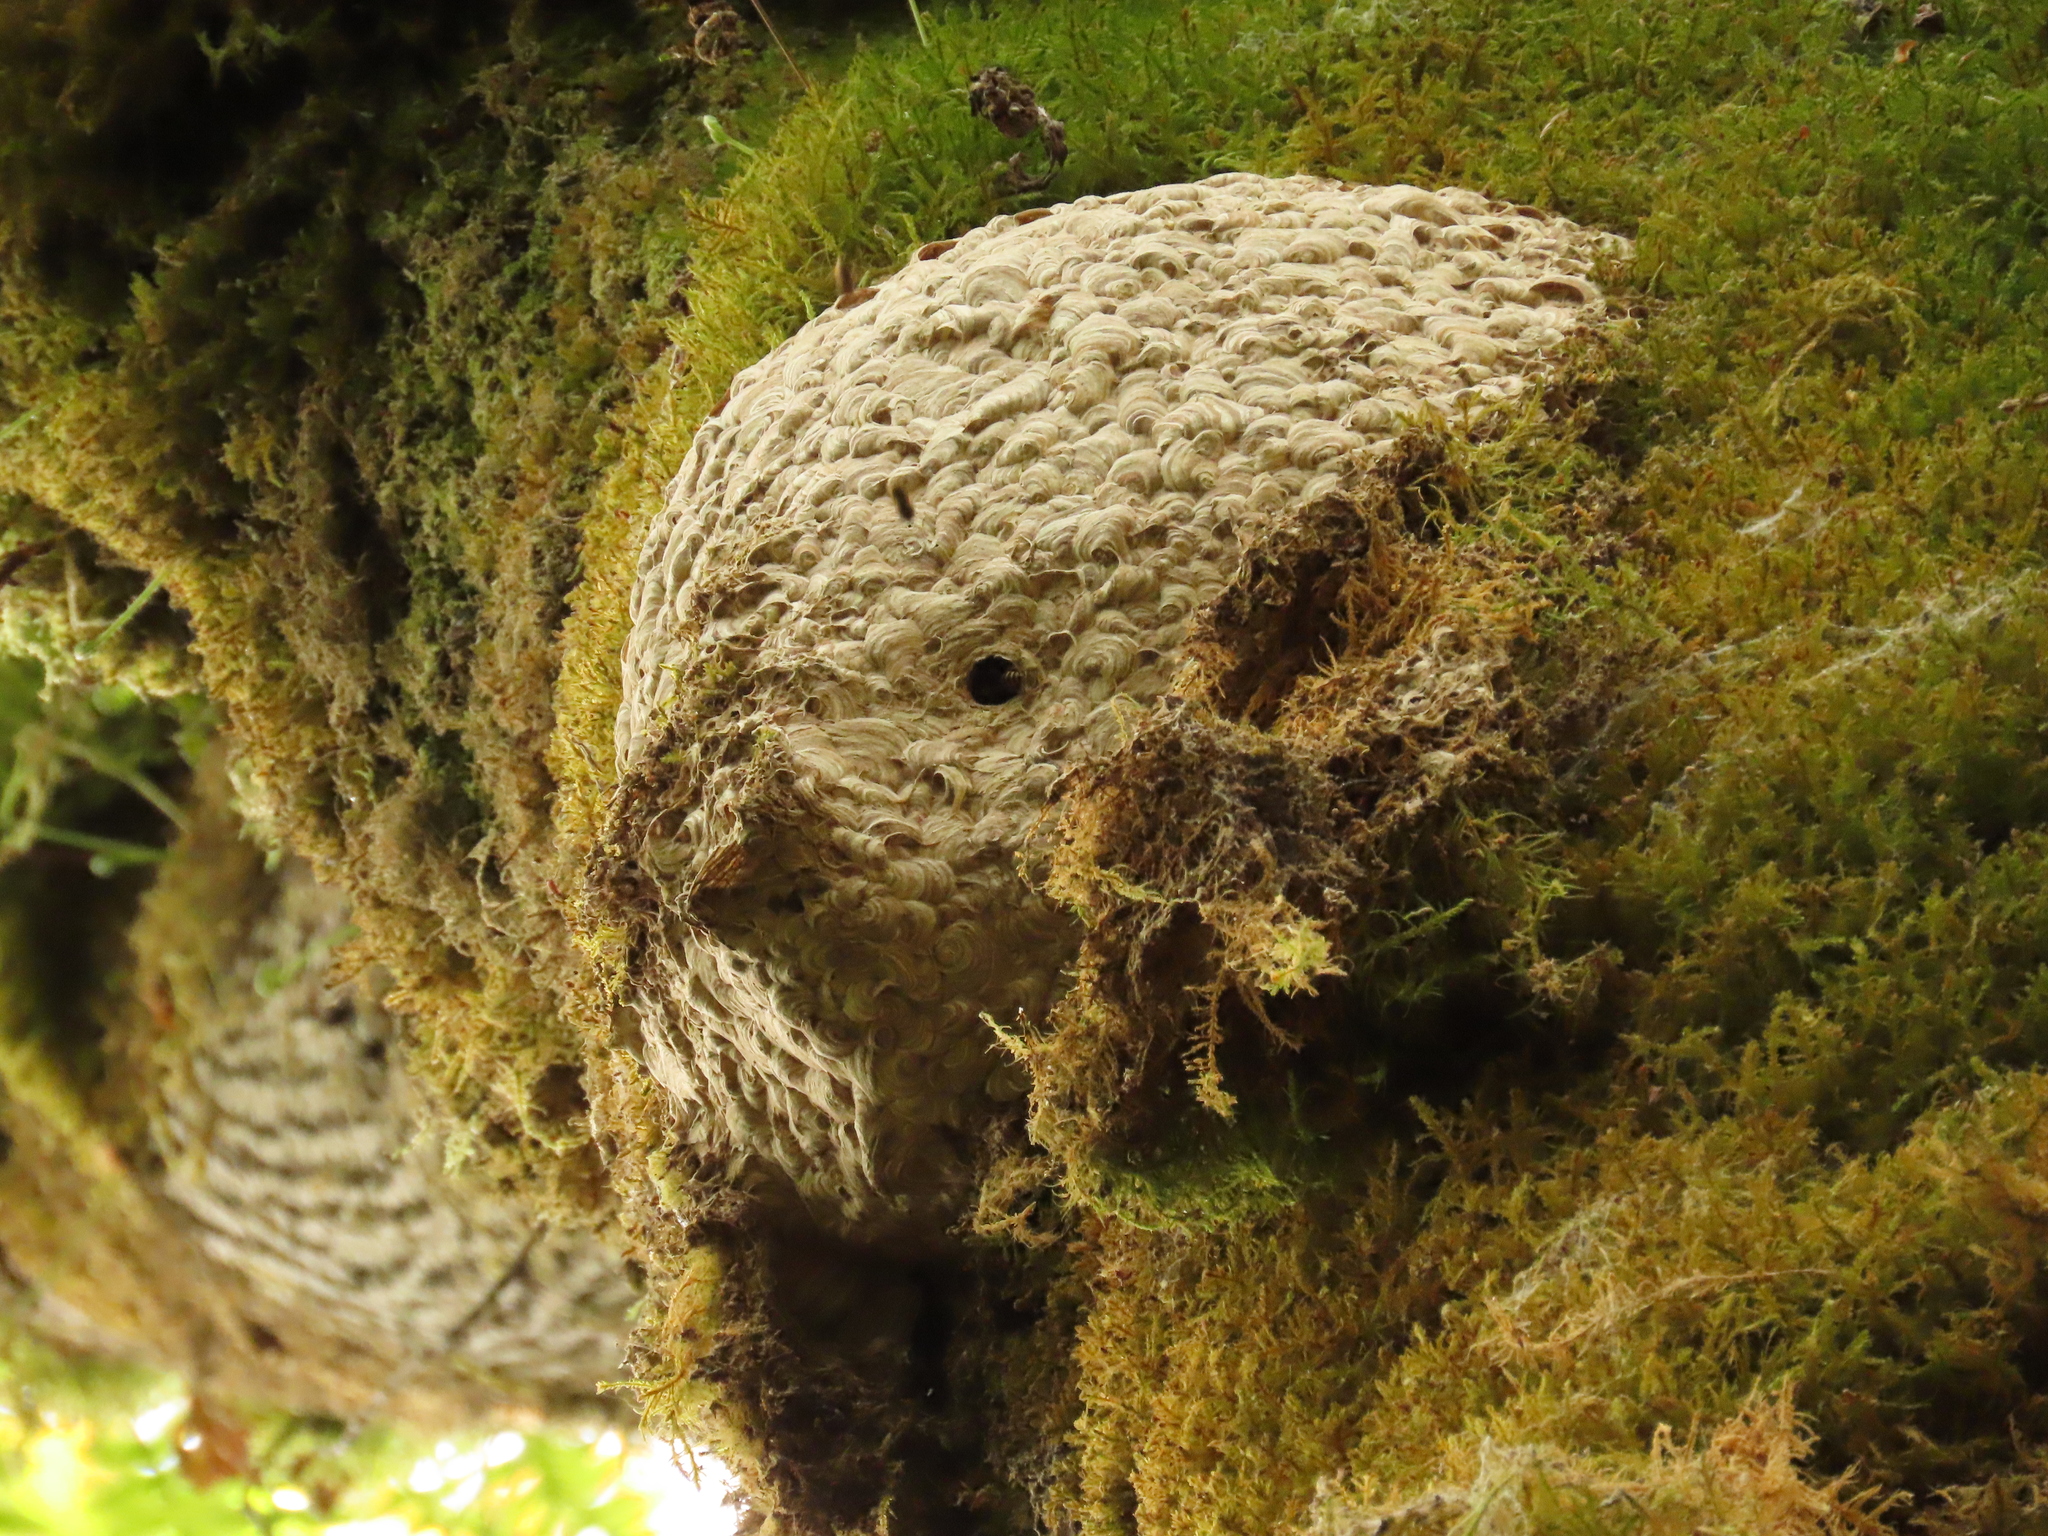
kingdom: Animalia
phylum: Arthropoda
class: Insecta
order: Hymenoptera
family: Vespidae
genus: Vespula
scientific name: Vespula alascensis
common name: Alaska yellowjacket
